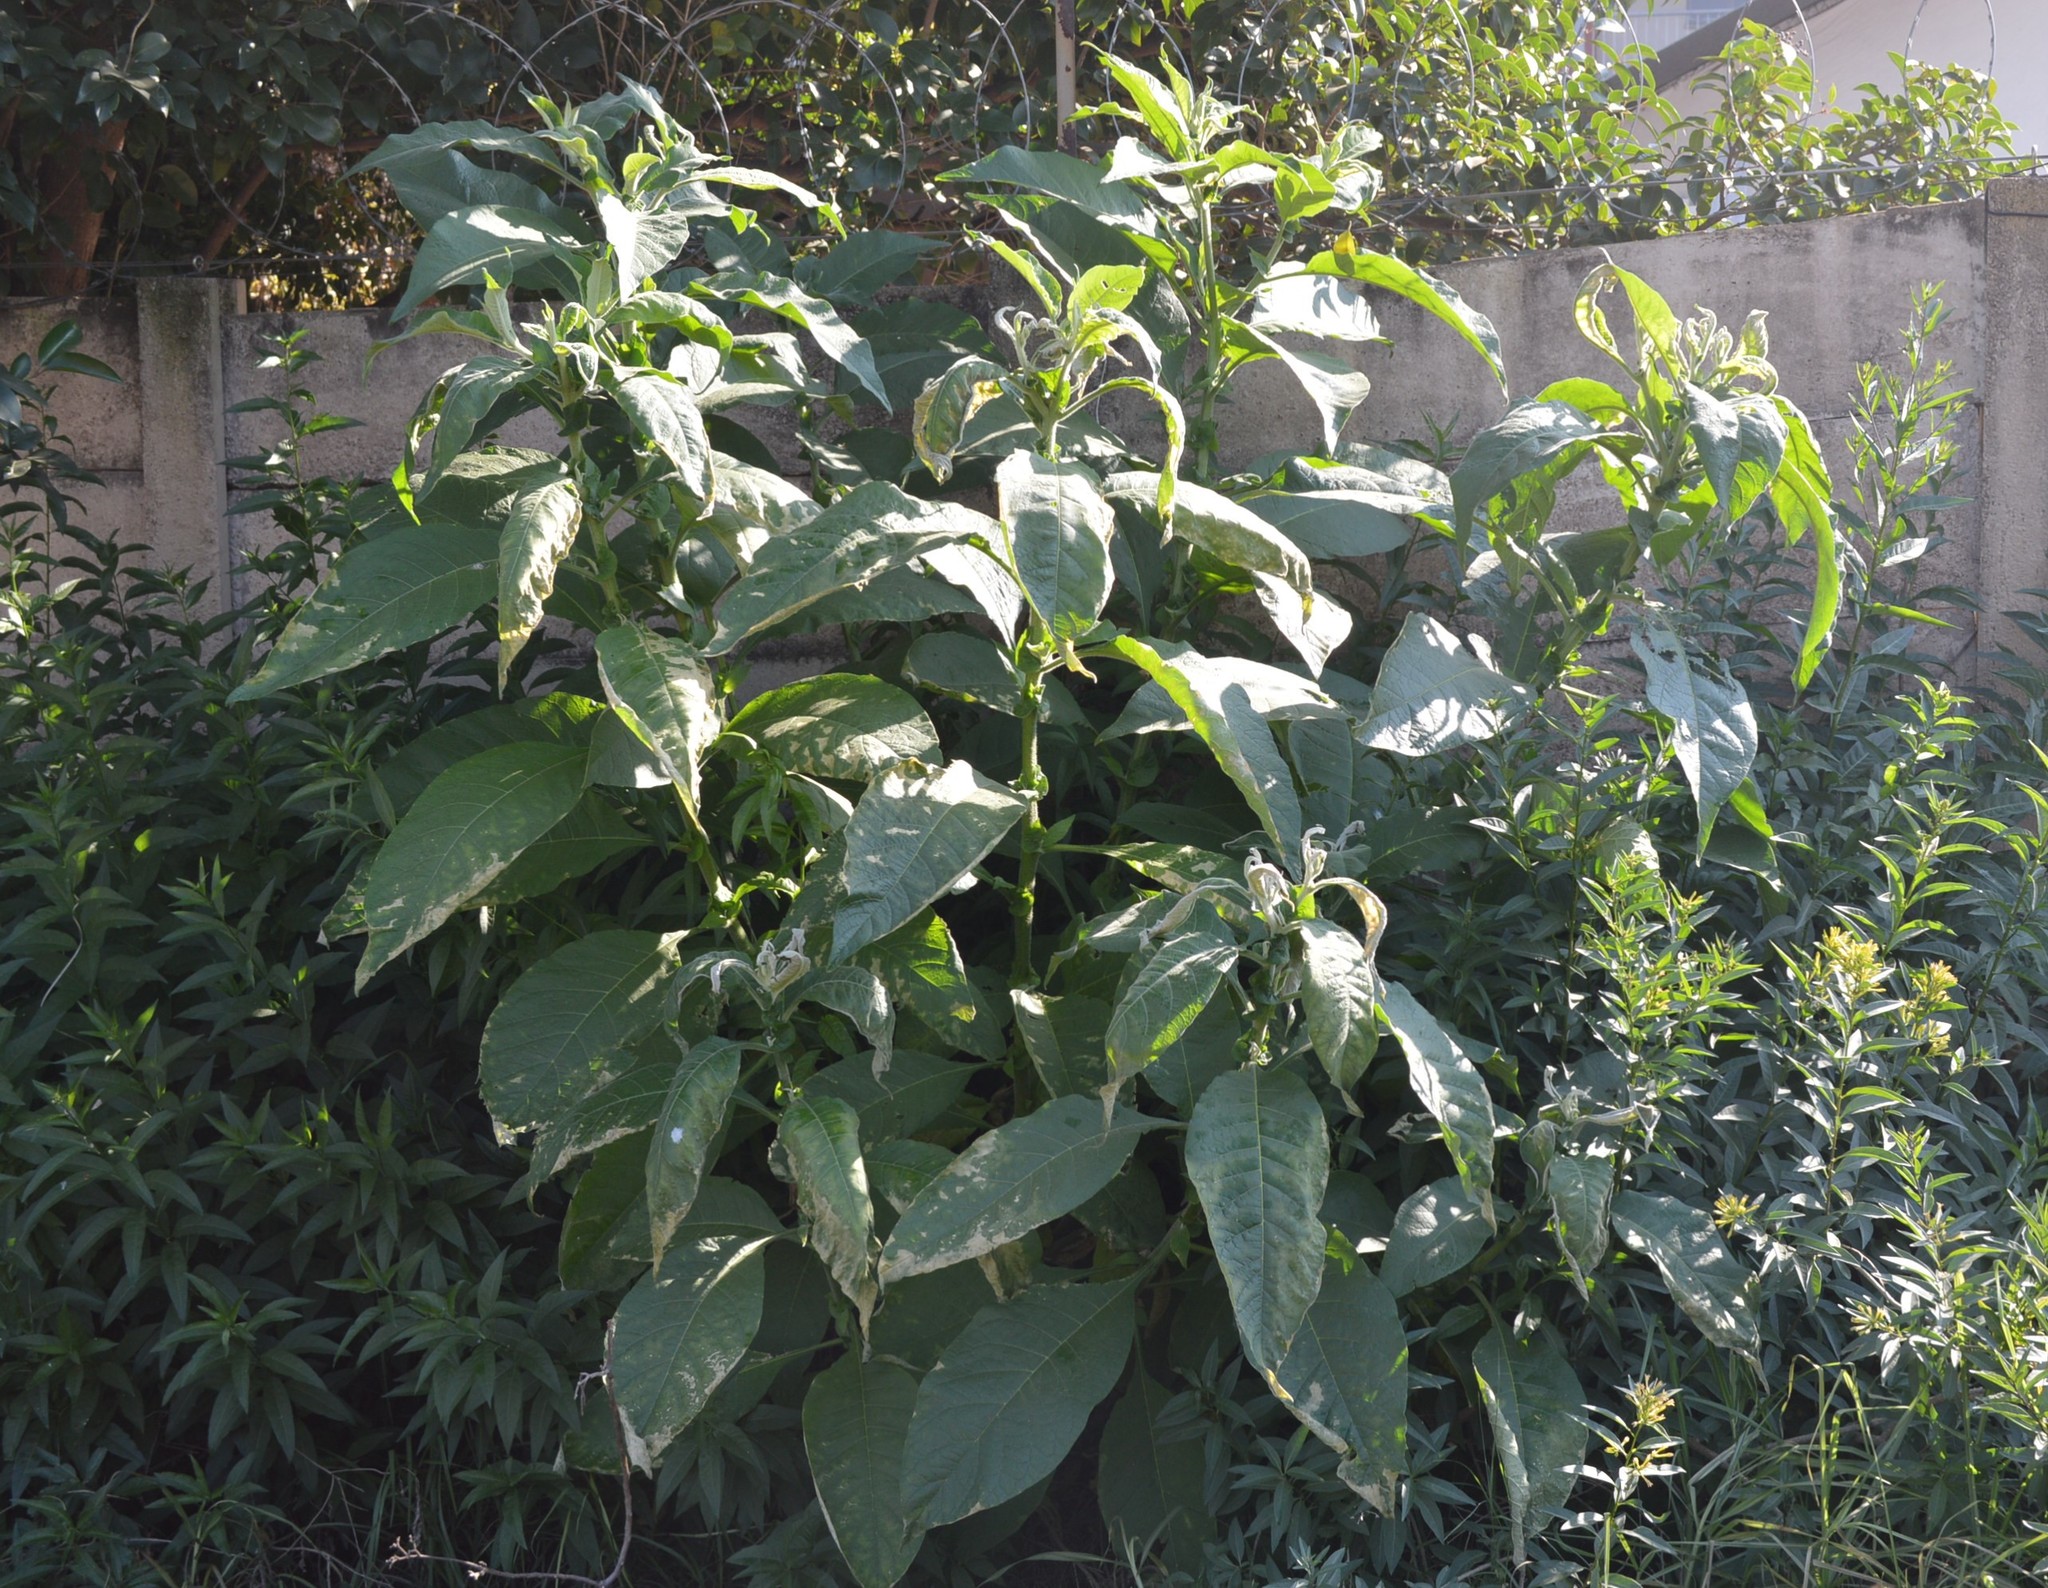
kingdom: Plantae
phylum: Tracheophyta
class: Magnoliopsida
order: Solanales
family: Solanaceae
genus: Solanum
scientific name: Solanum mauritianum
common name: Earleaf nightshade
